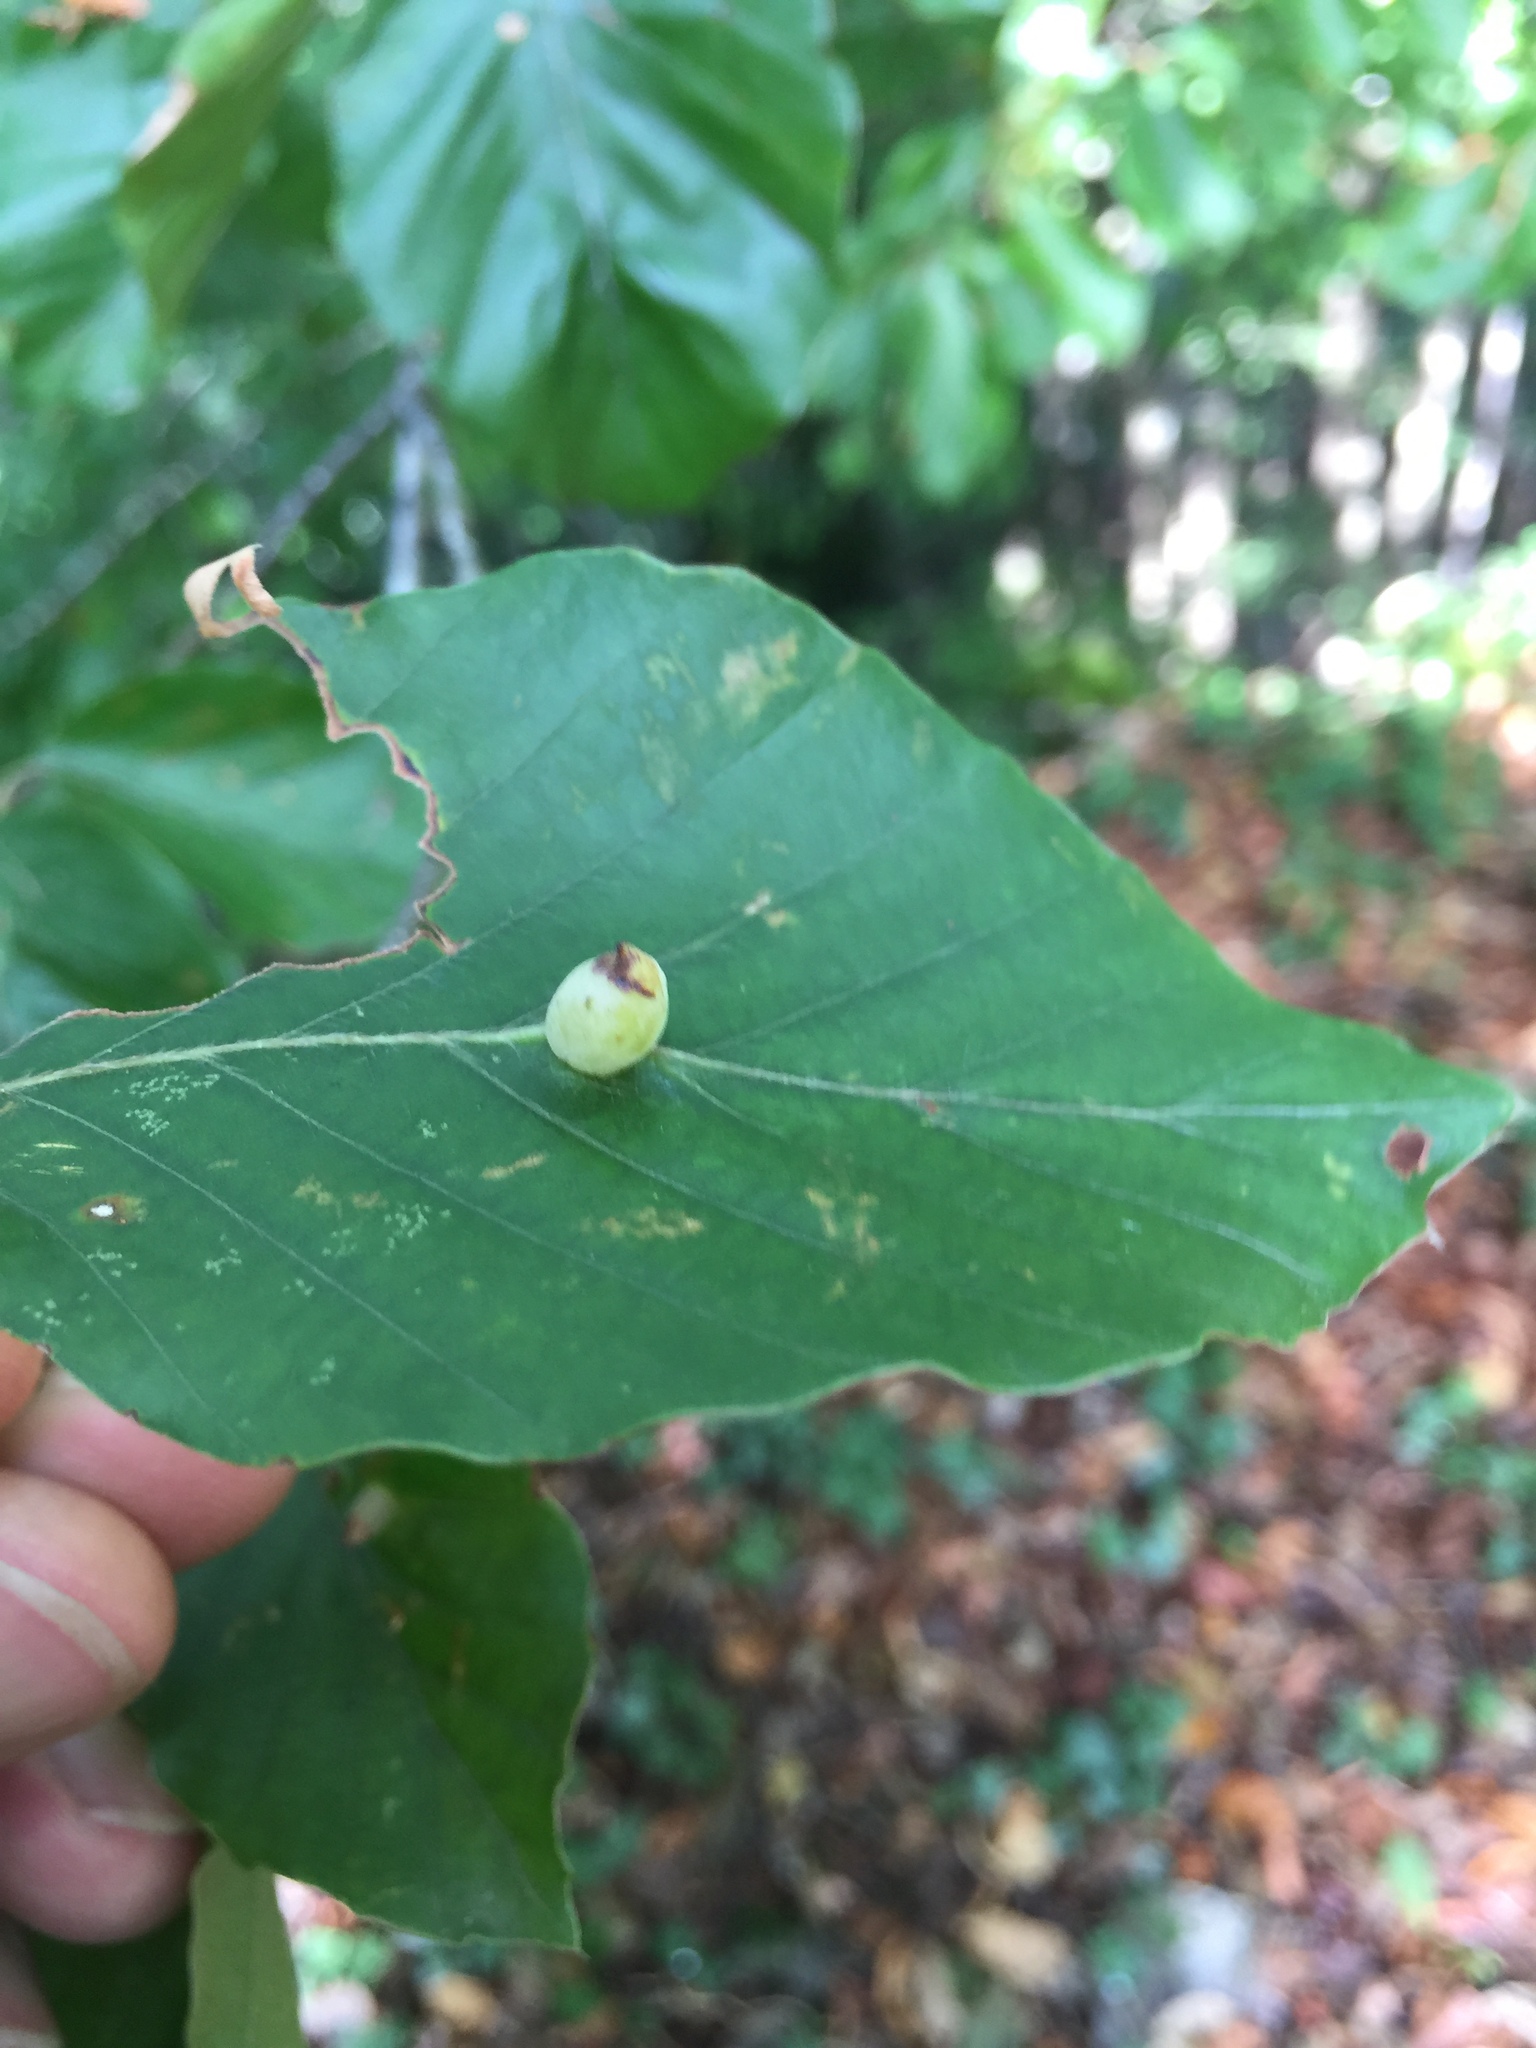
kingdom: Animalia
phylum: Arthropoda
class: Insecta
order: Diptera
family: Cecidomyiidae
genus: Mikiola
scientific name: Mikiola fagi
